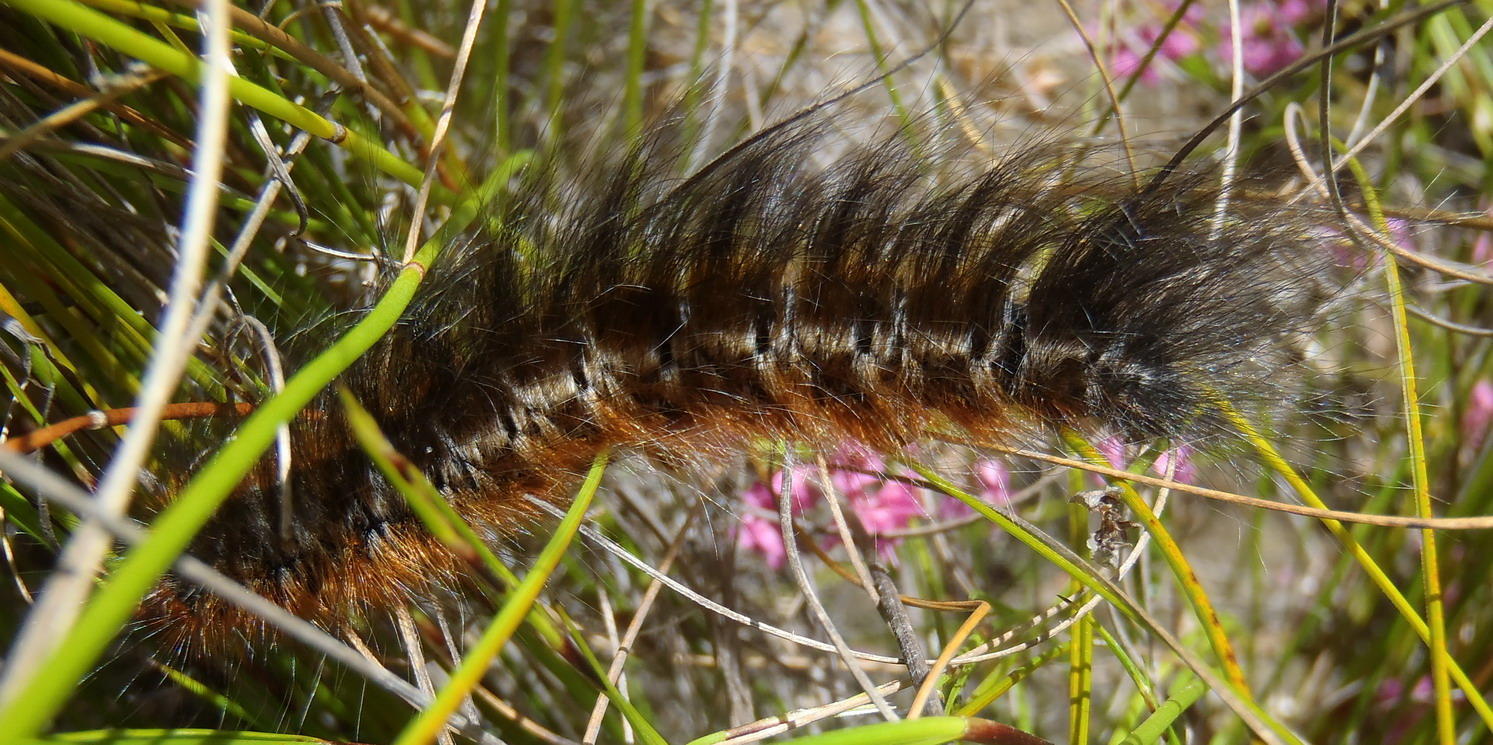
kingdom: Animalia
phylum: Arthropoda
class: Insecta
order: Lepidoptera
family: Lasiocampidae
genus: Mesocelis
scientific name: Mesocelis monticola
